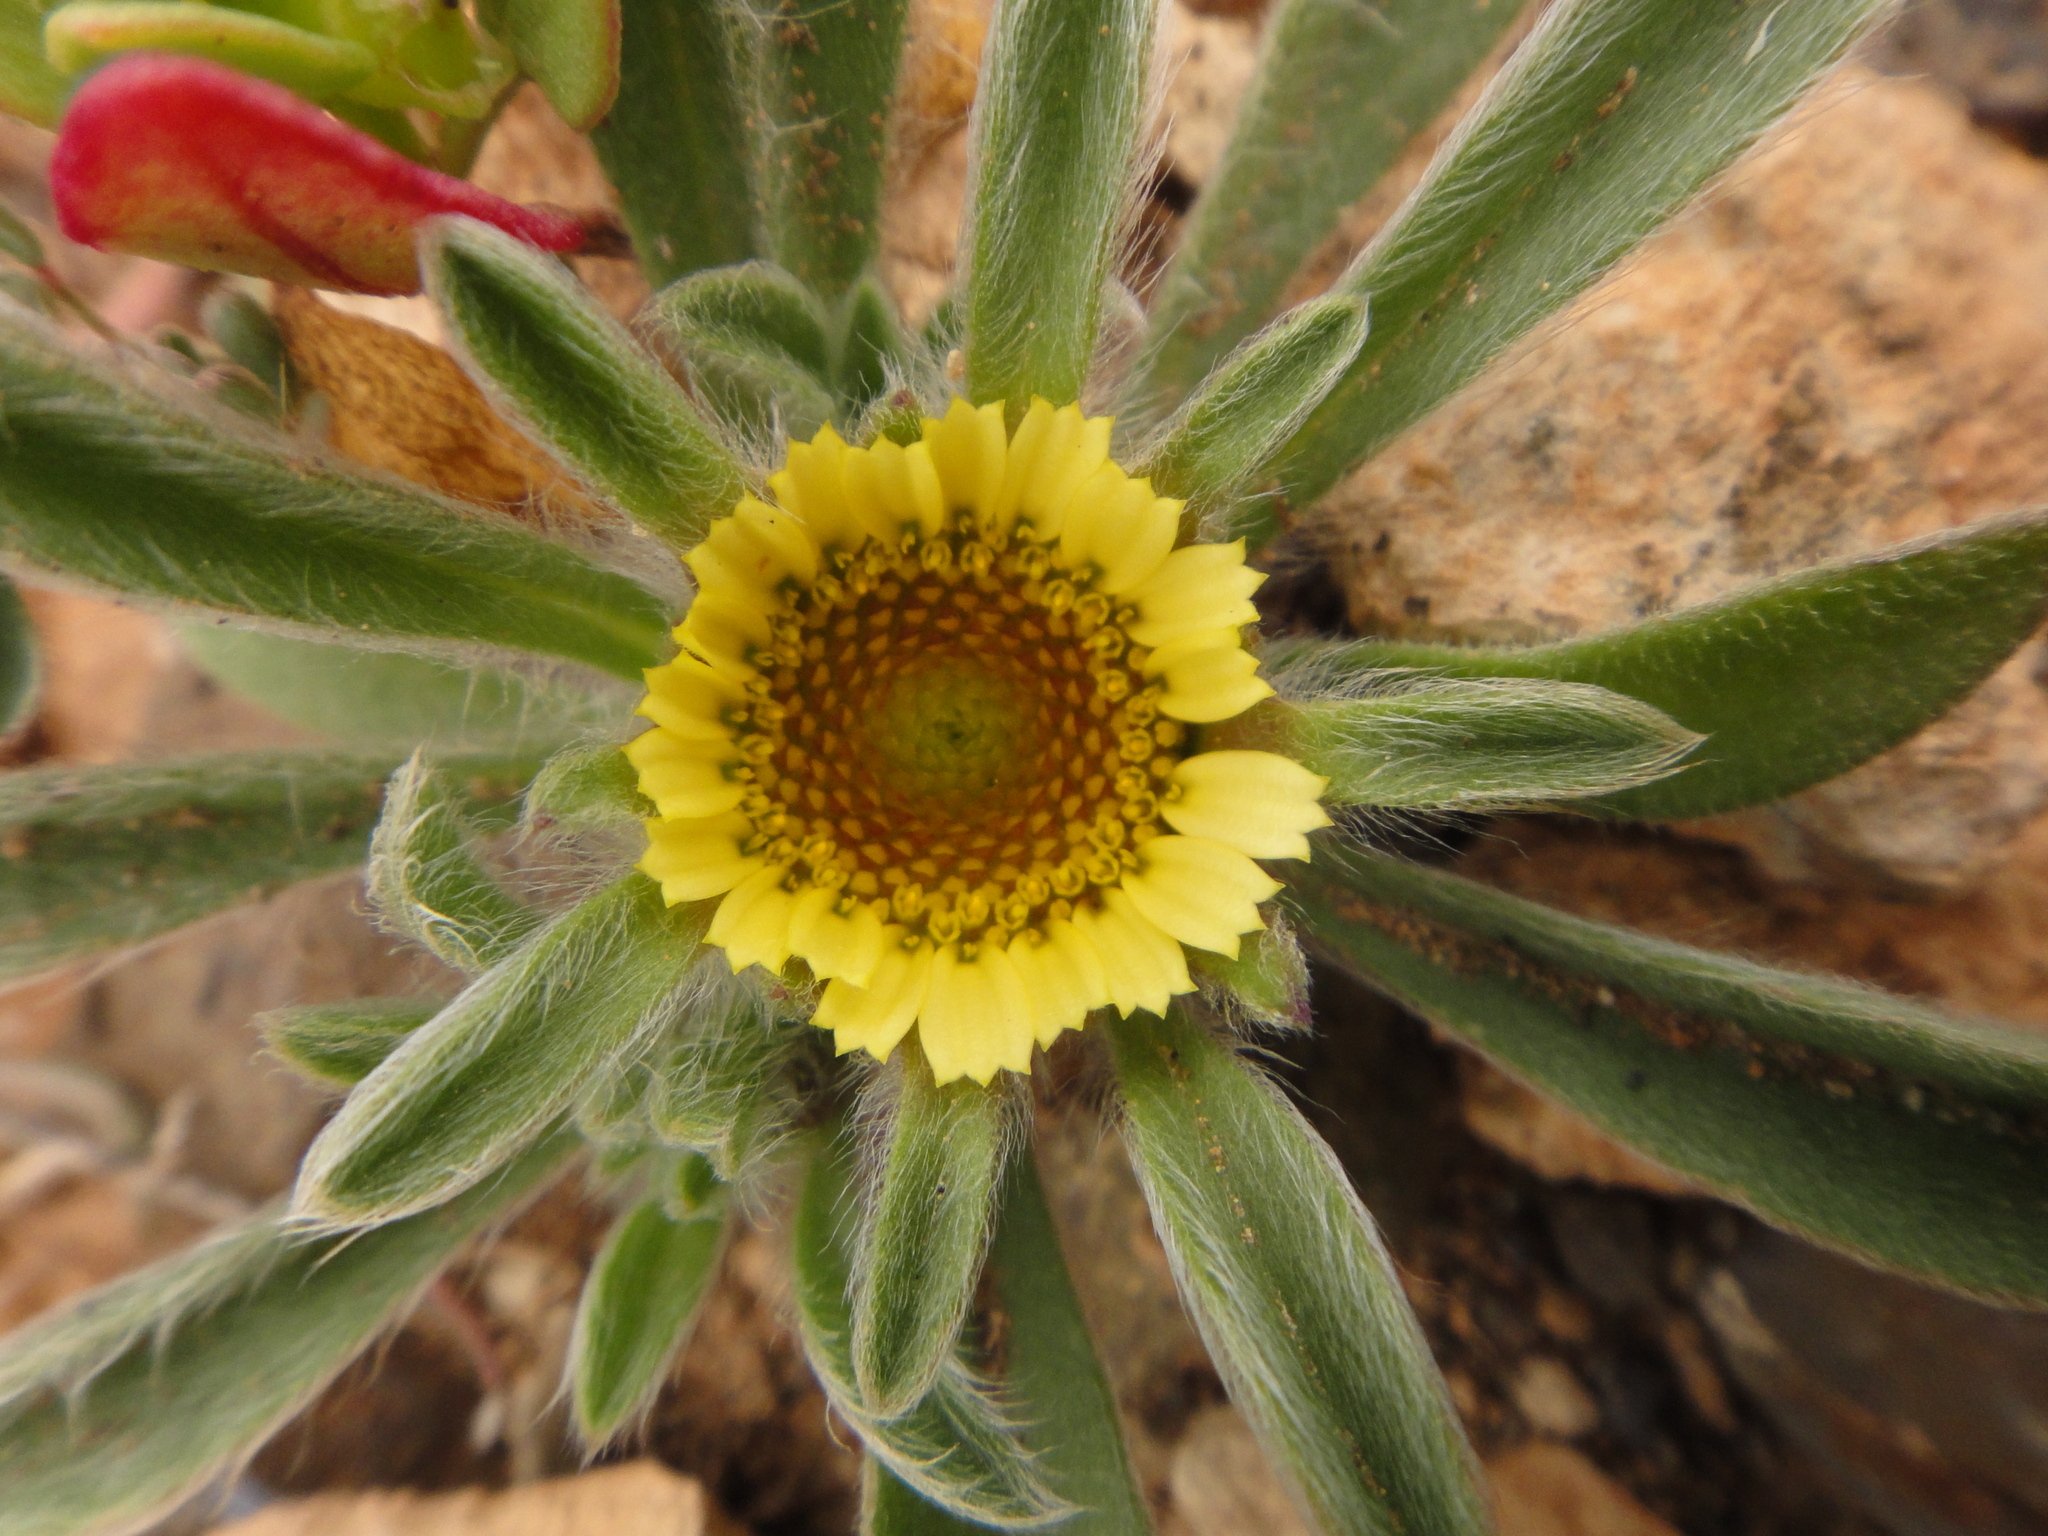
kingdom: Plantae
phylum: Tracheophyta
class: Magnoliopsida
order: Asterales
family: Asteraceae
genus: Pallenis
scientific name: Pallenis hierochuntica
